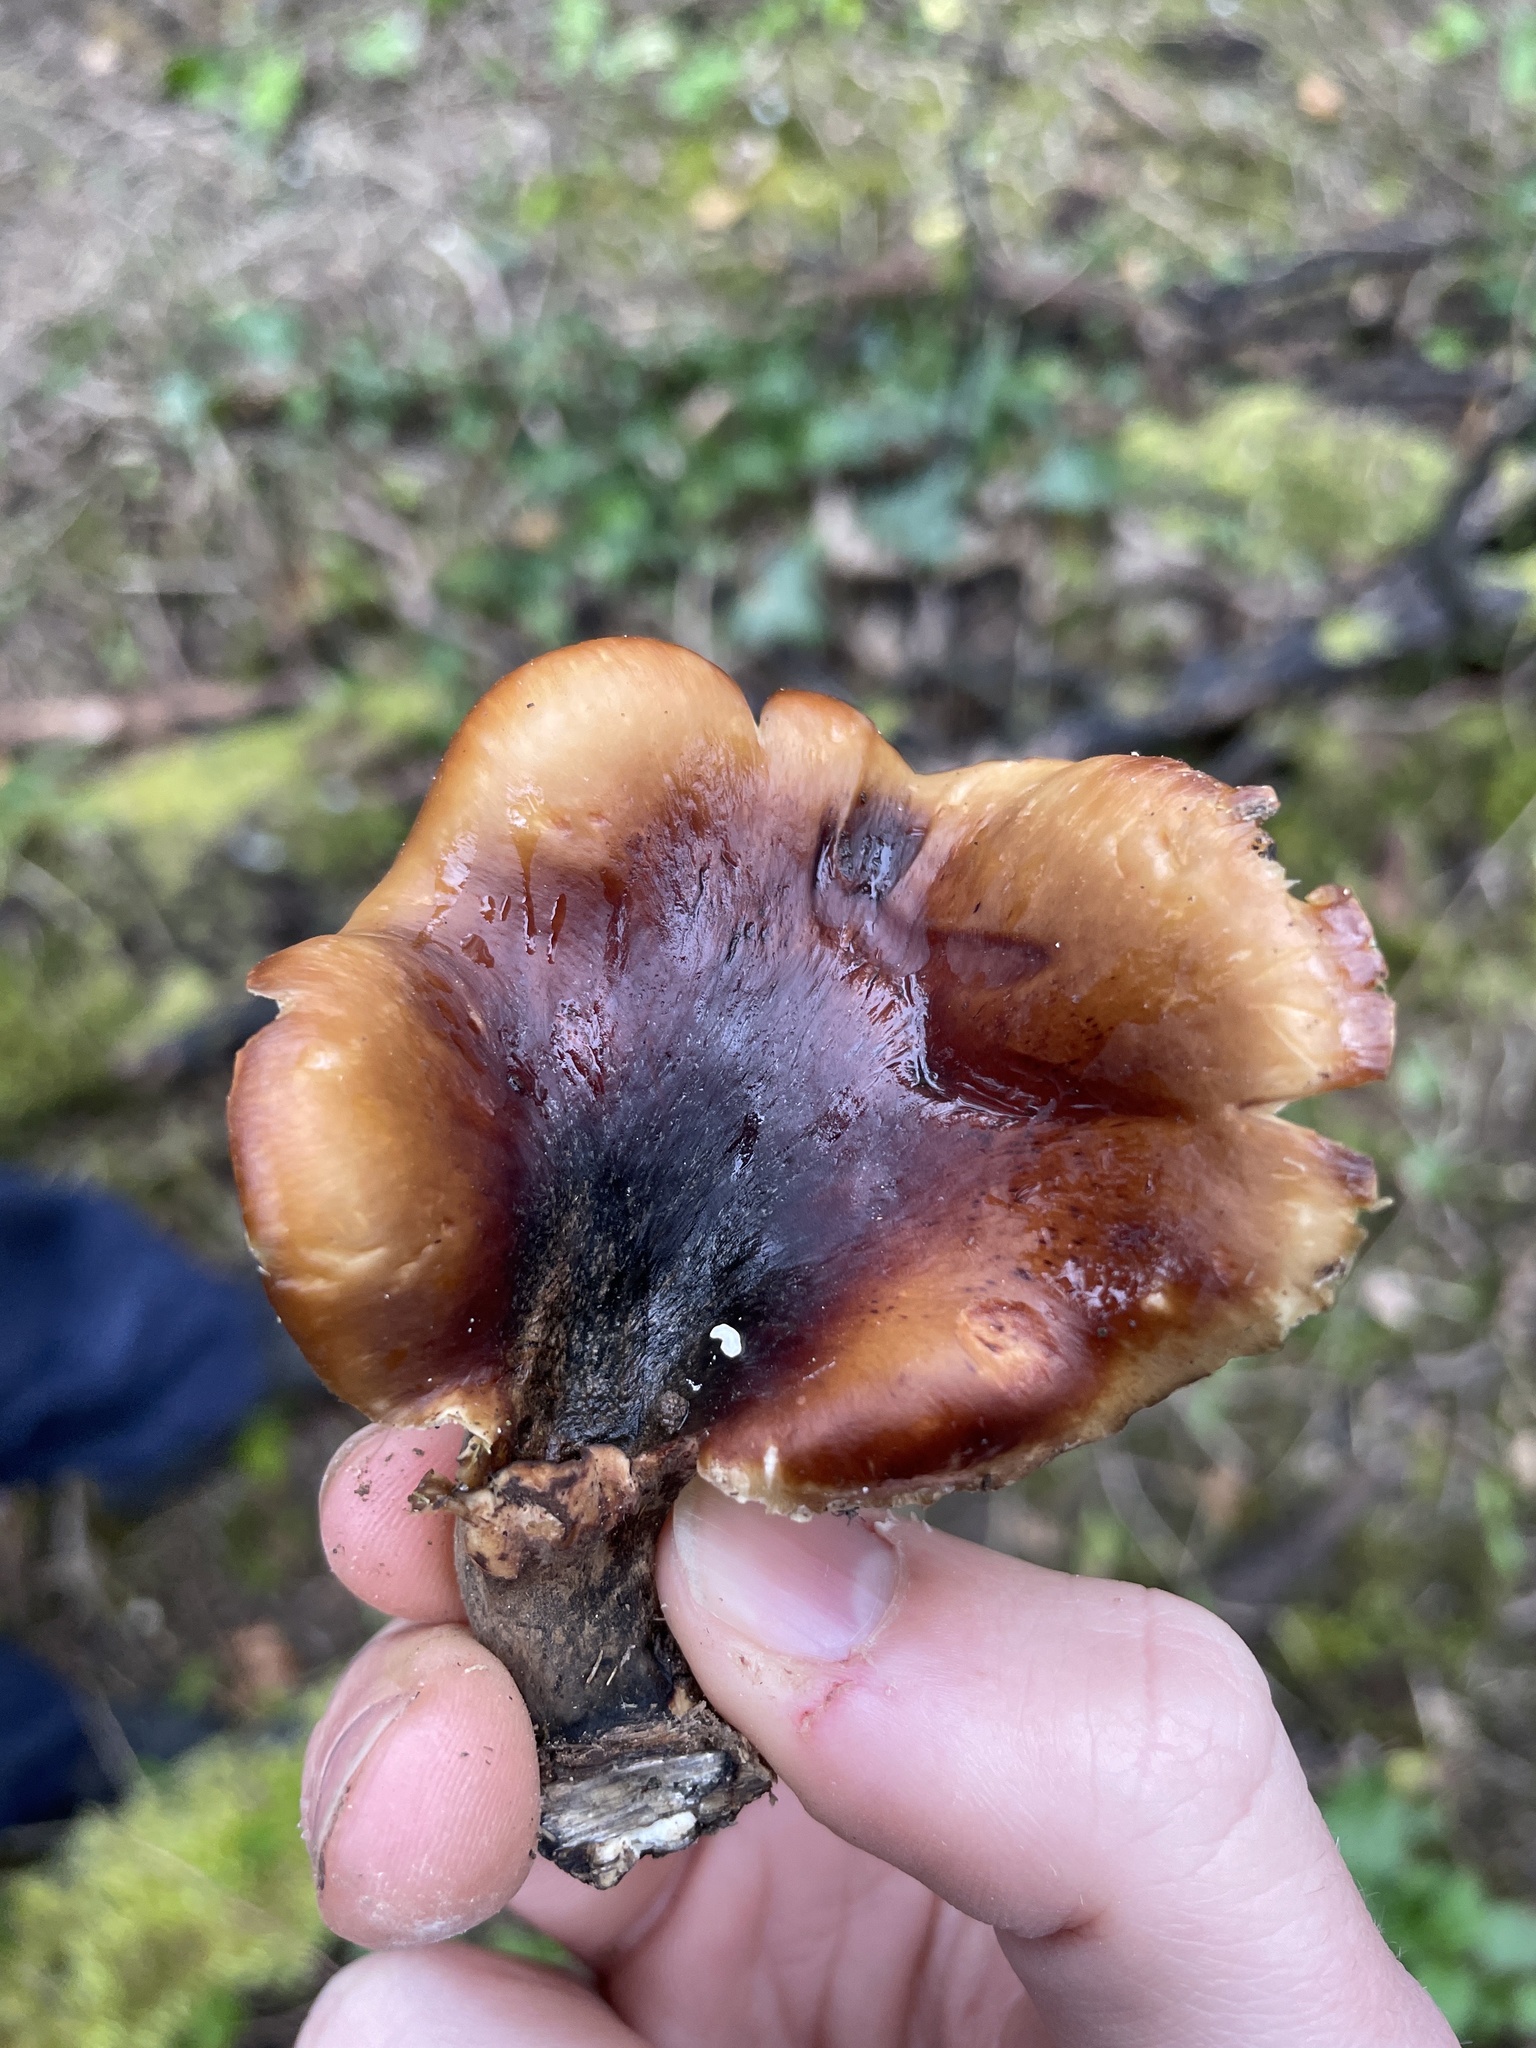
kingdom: Fungi
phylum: Basidiomycota
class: Agaricomycetes
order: Polyporales
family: Polyporaceae
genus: Picipes
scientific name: Picipes badius
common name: Bay polypore
